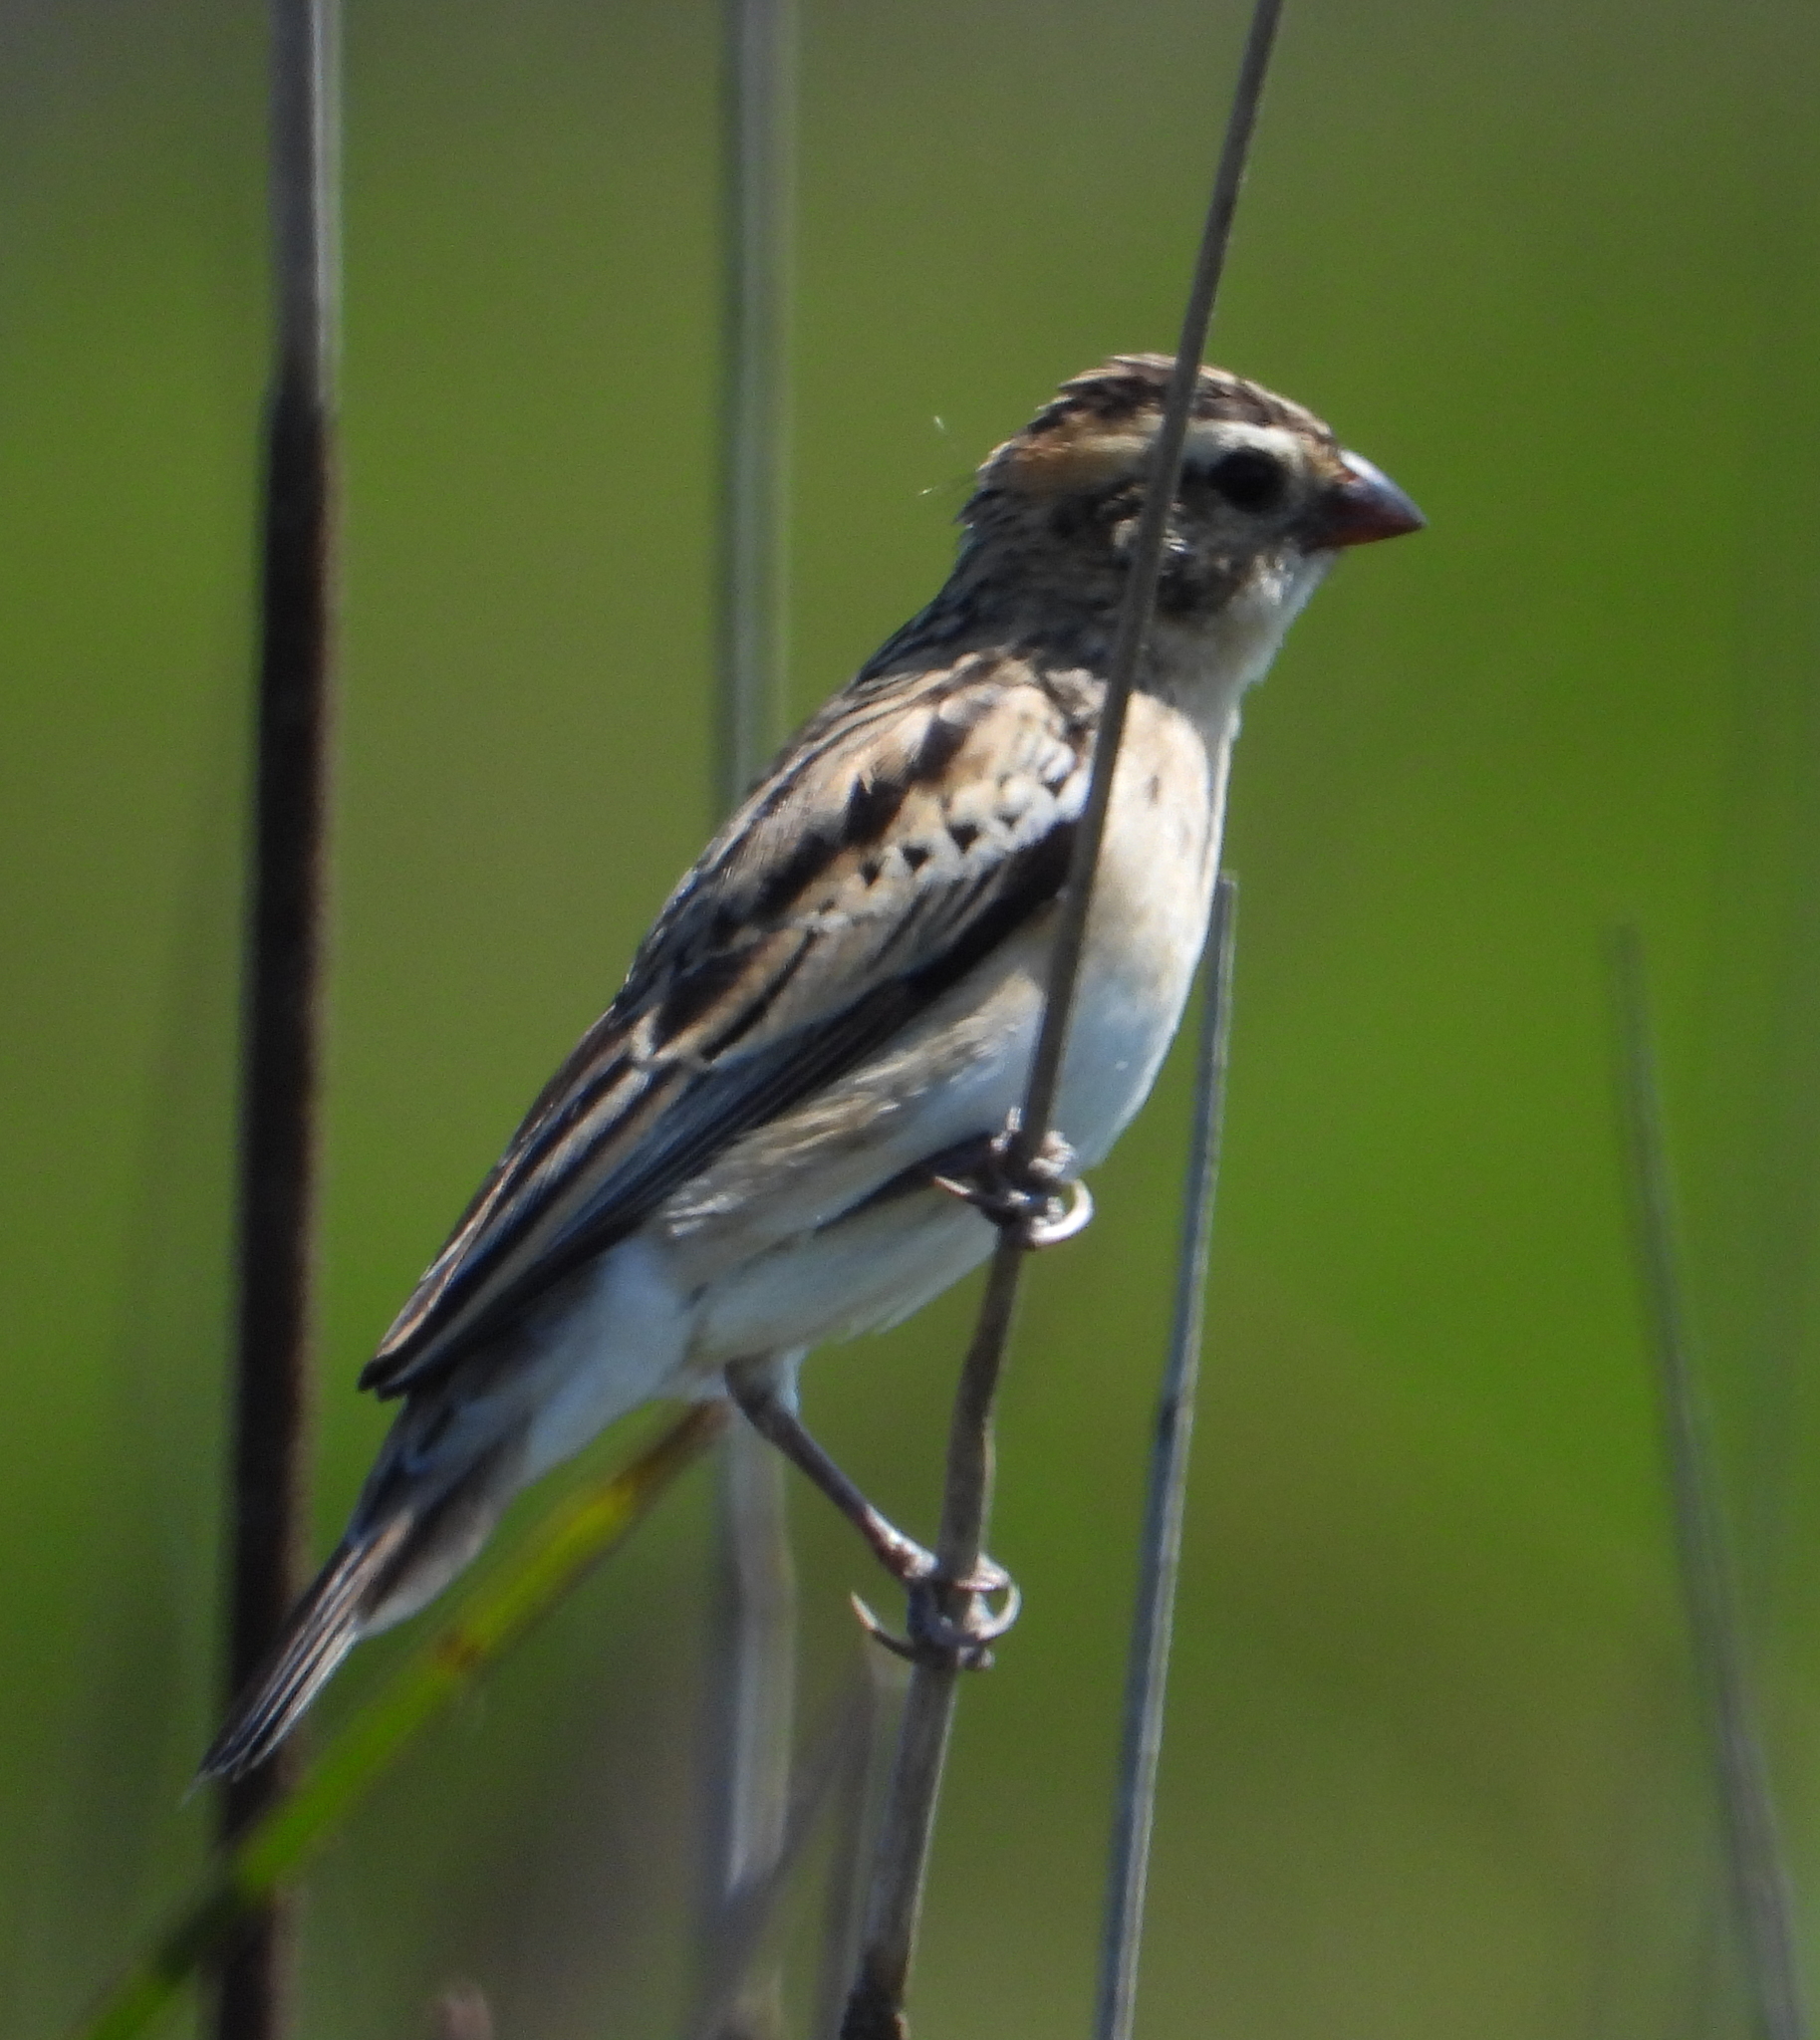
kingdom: Animalia
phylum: Chordata
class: Aves
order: Passeriformes
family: Viduidae
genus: Vidua
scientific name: Vidua macroura
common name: Pin-tailed whydah
